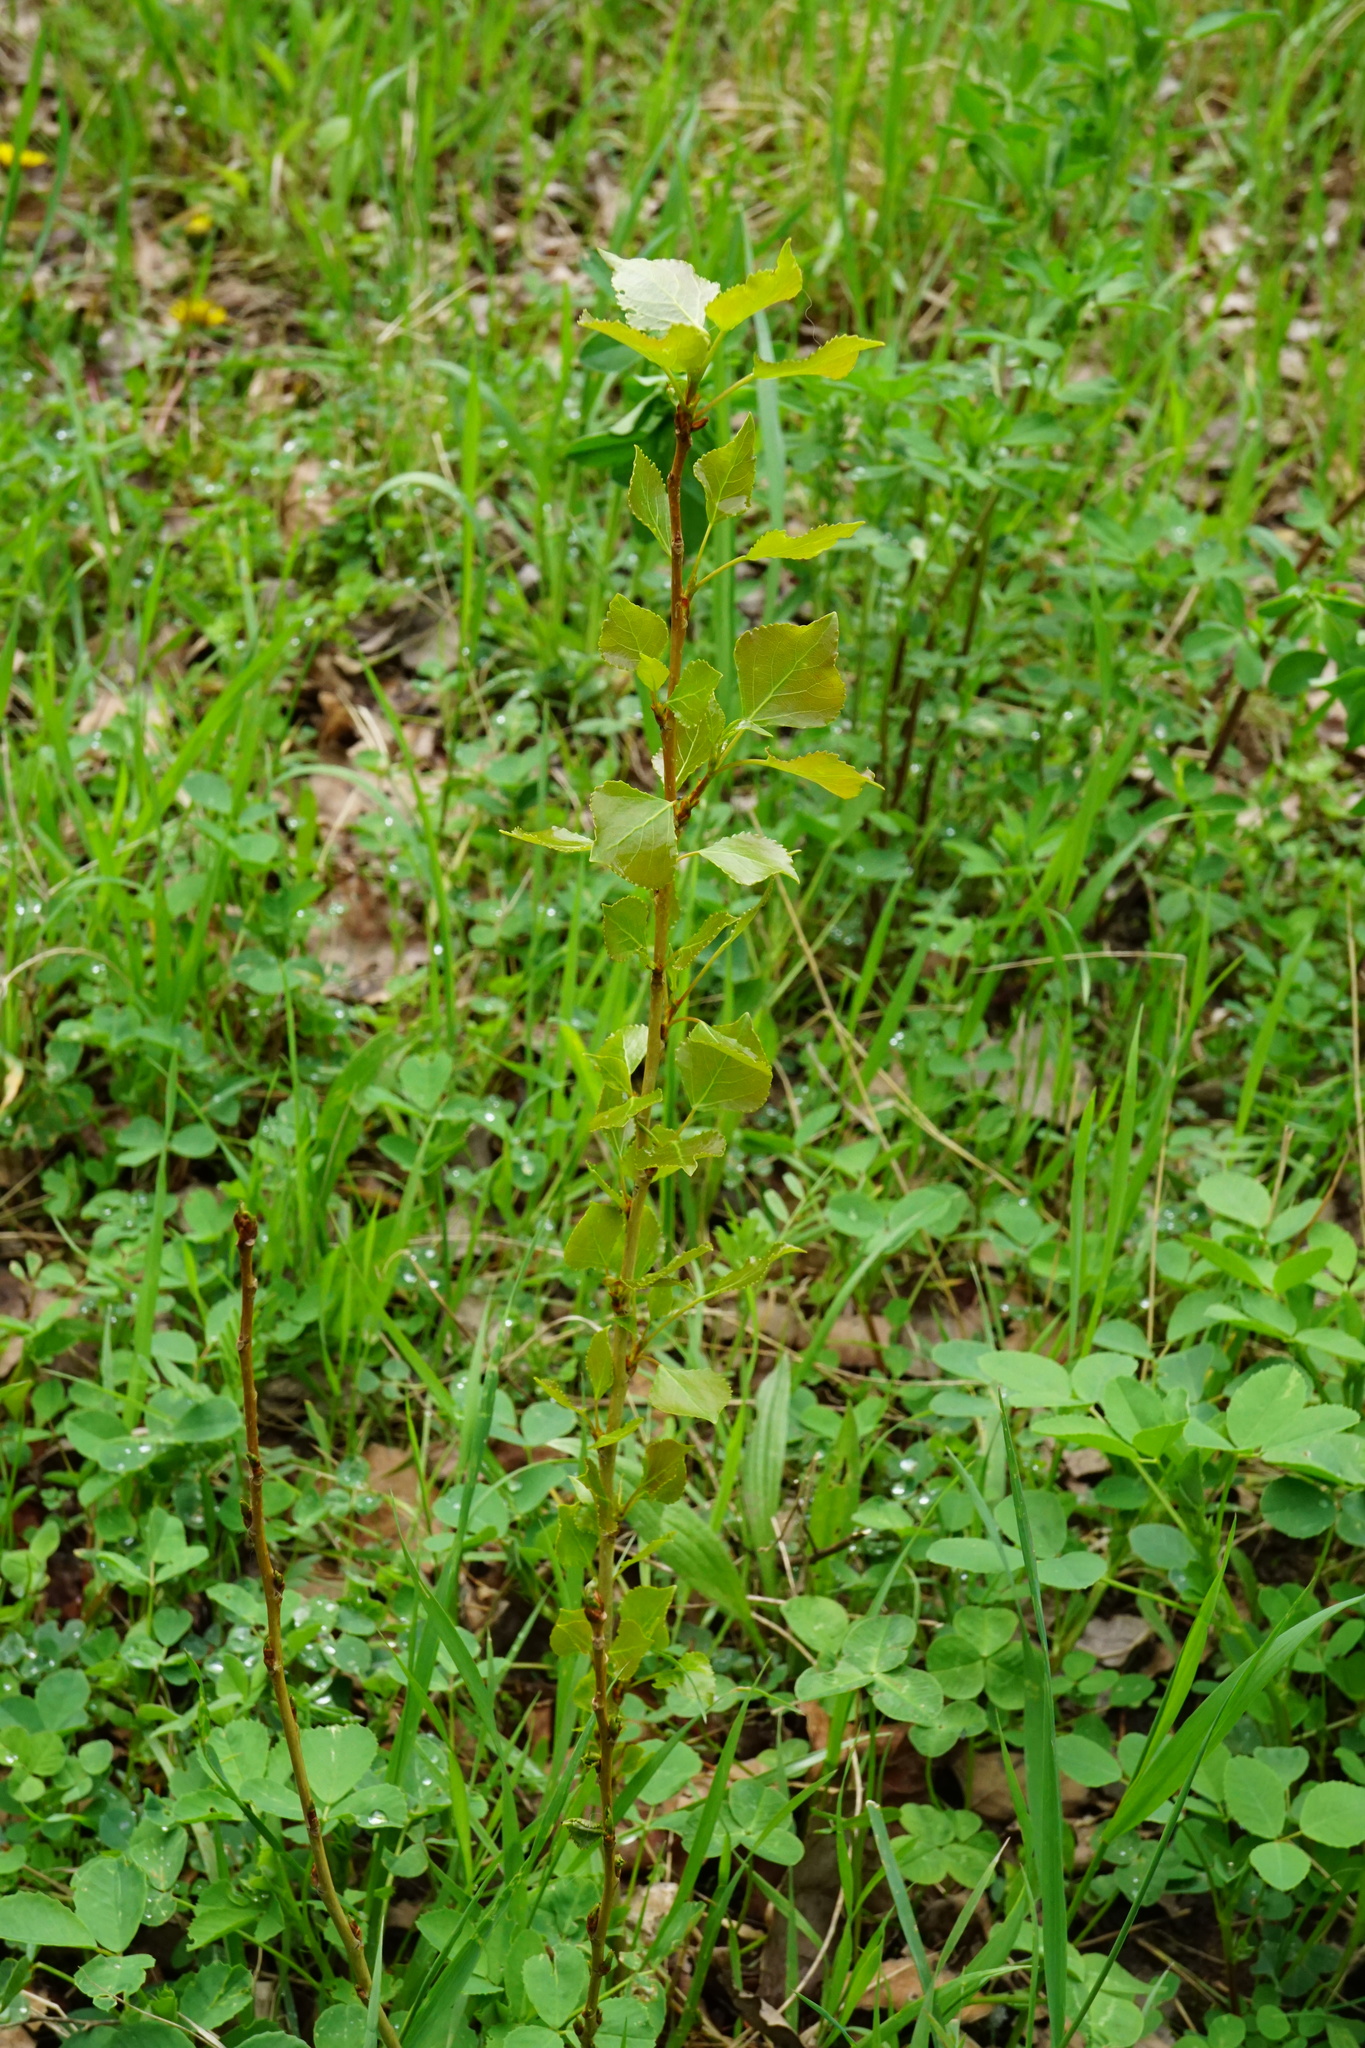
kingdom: Plantae
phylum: Tracheophyta
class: Magnoliopsida
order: Malpighiales
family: Salicaceae
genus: Populus
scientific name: Populus nigra
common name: Black poplar
